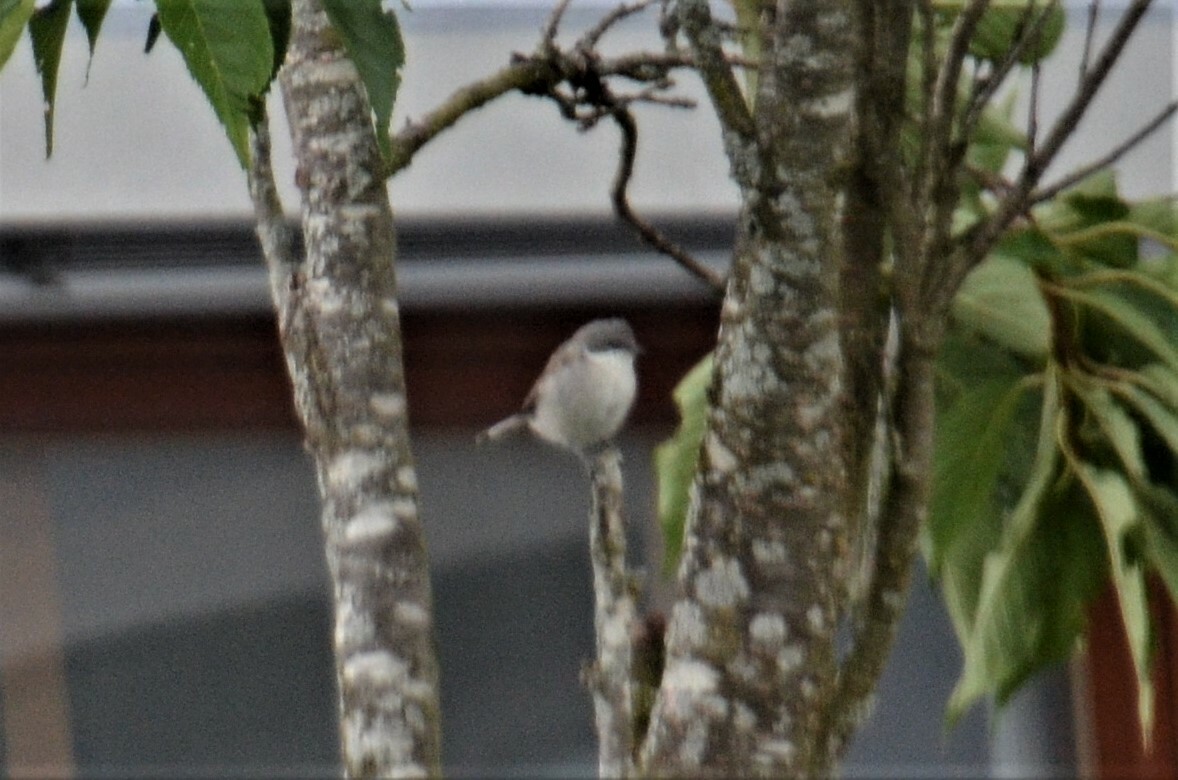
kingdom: Animalia
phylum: Chordata
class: Aves
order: Passeriformes
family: Sylviidae
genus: Sylvia
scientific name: Sylvia curruca
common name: Lesser whitethroat
